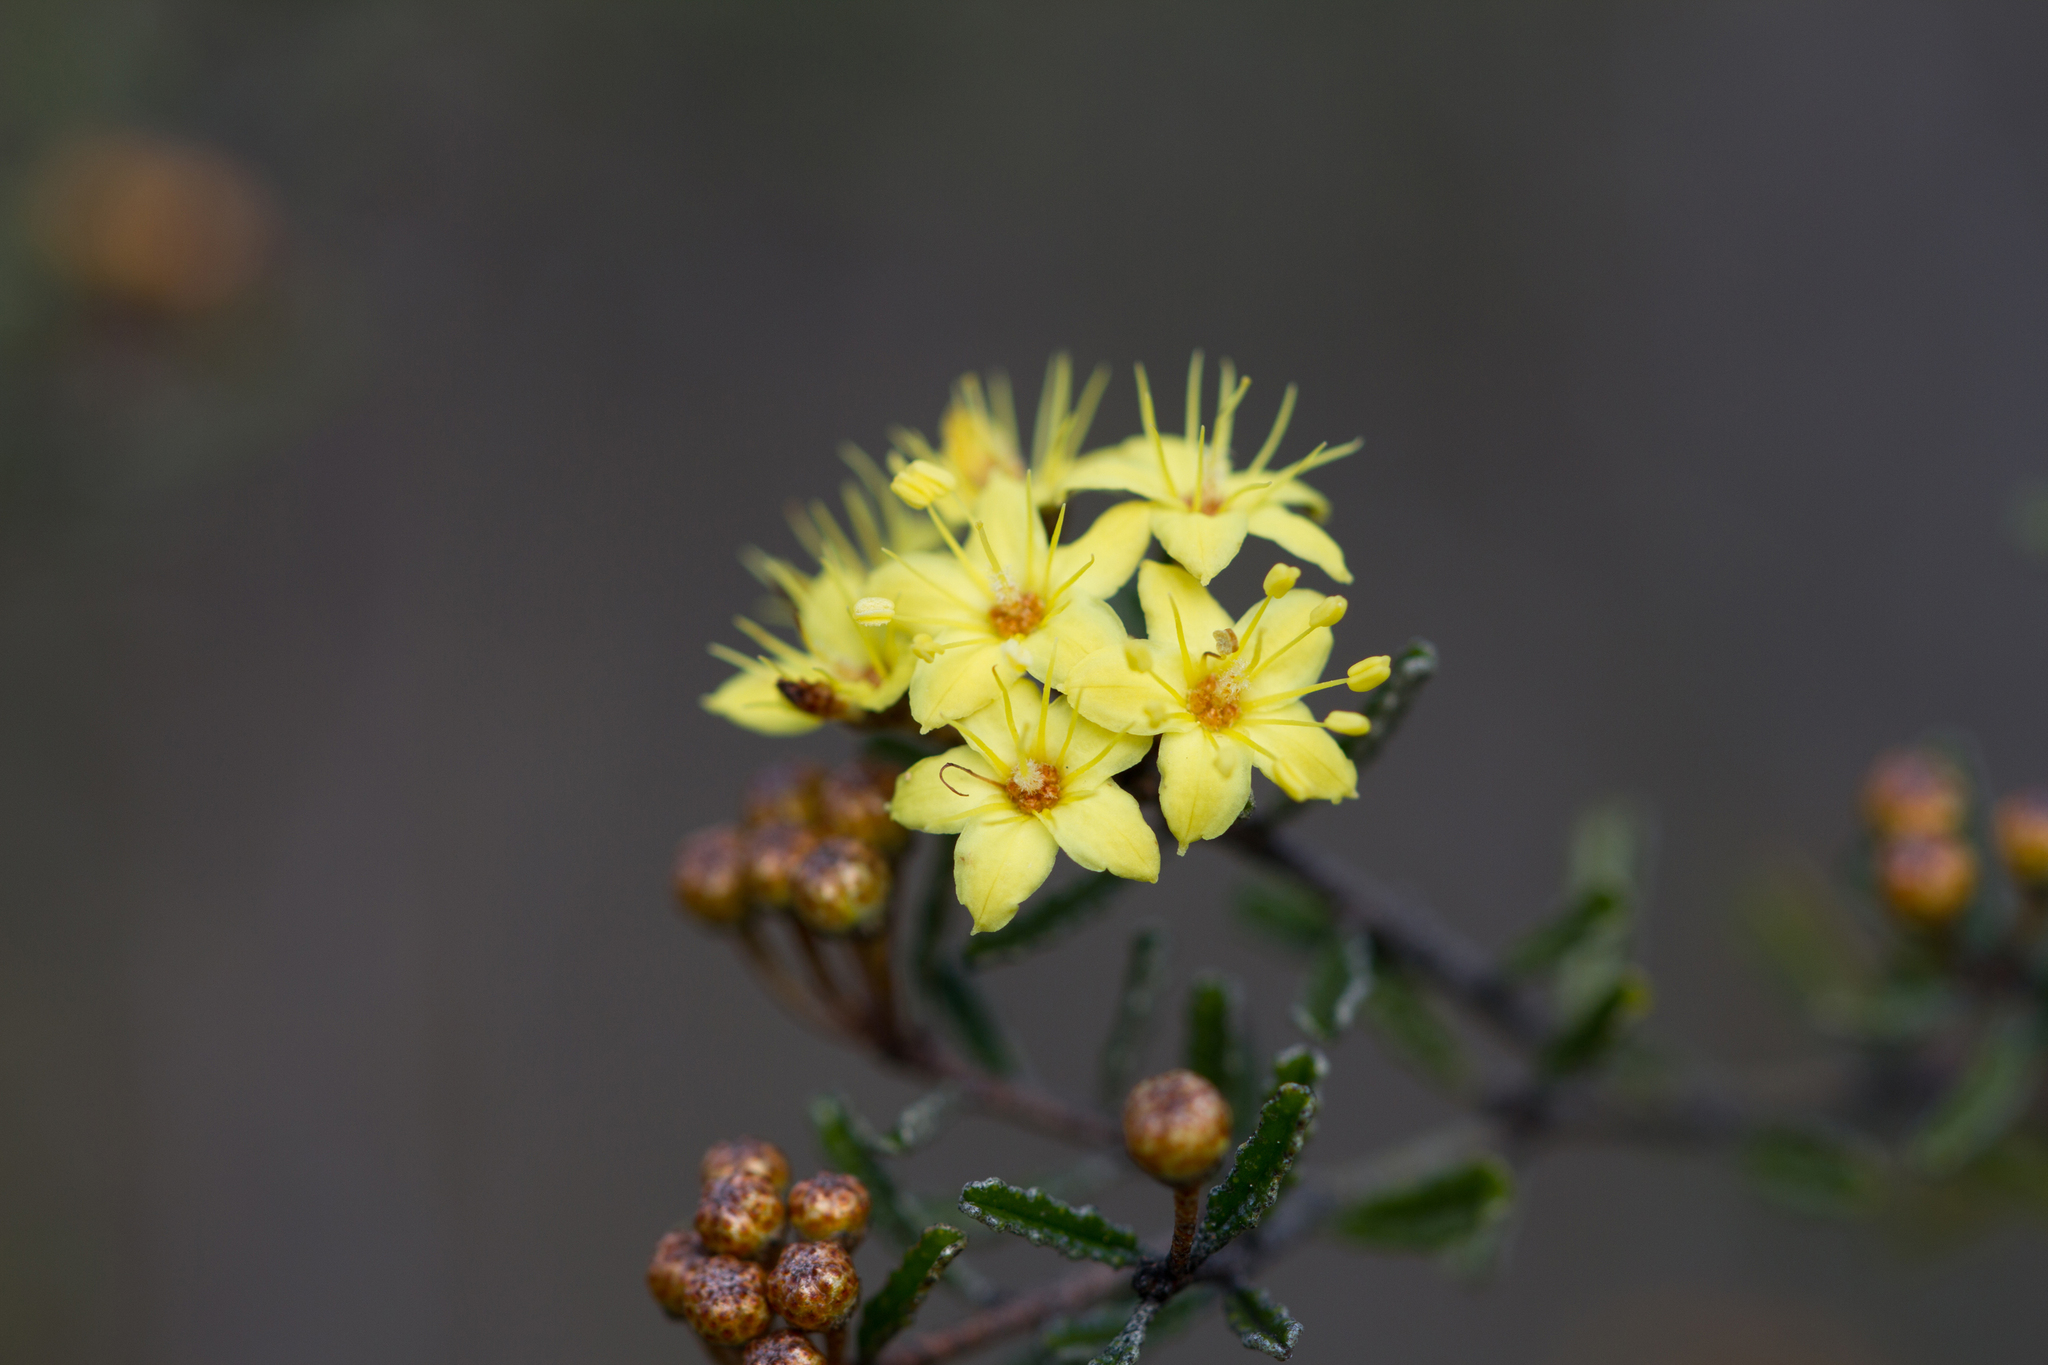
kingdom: Plantae
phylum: Tracheophyta
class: Magnoliopsida
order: Sapindales
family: Rutaceae
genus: Phebalium
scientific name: Phebalium bullatum
